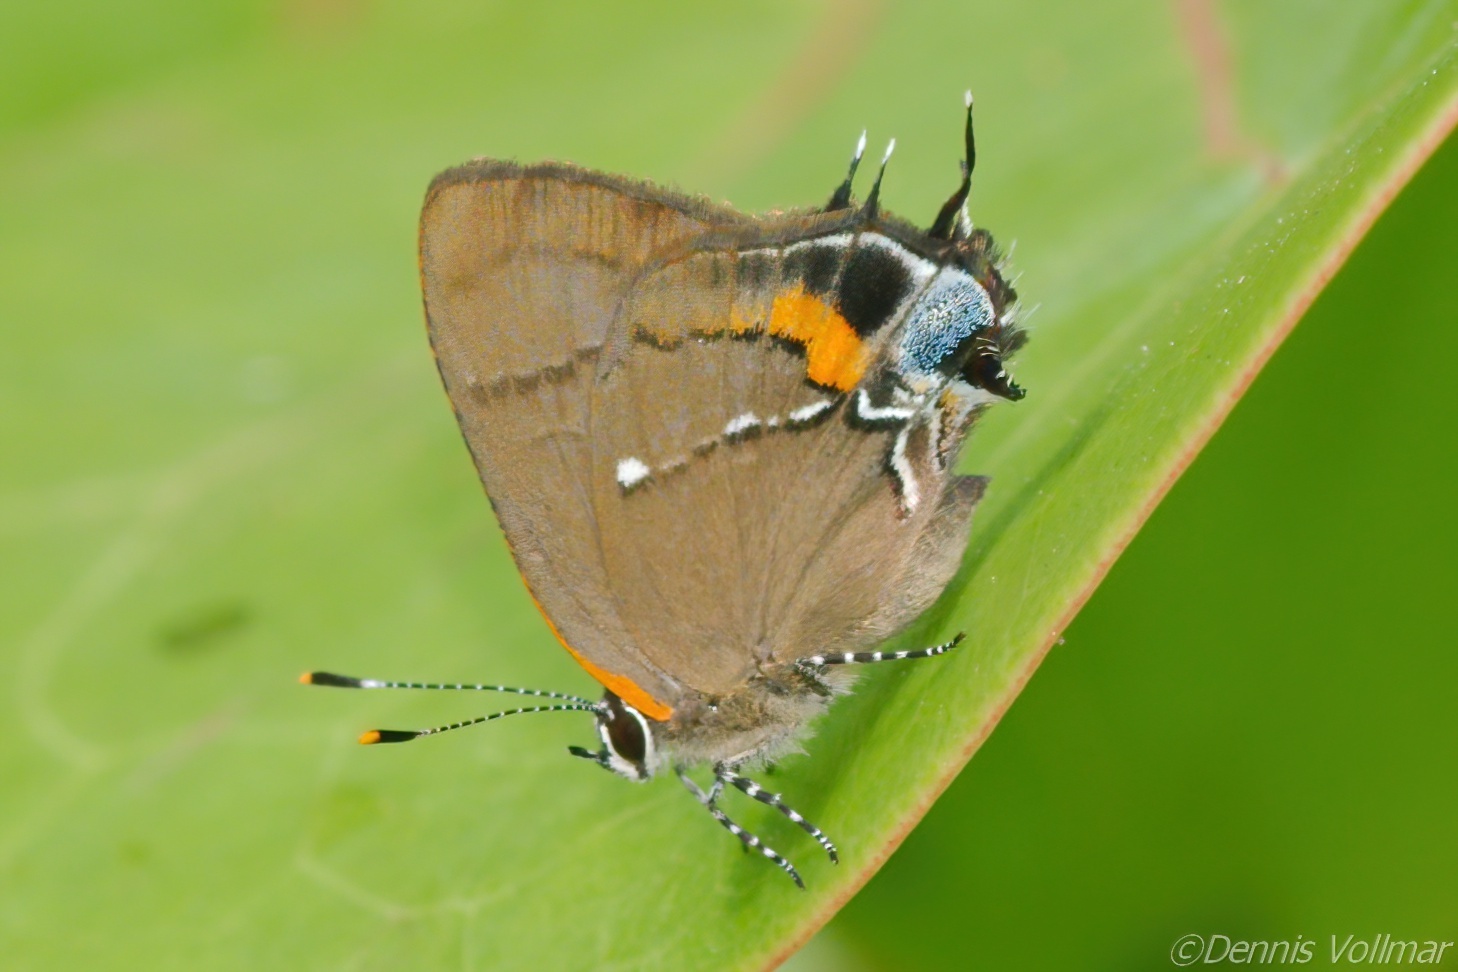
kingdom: Animalia
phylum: Arthropoda
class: Insecta
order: Lepidoptera
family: Lycaenidae
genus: Thecla
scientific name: Thecla angelia
